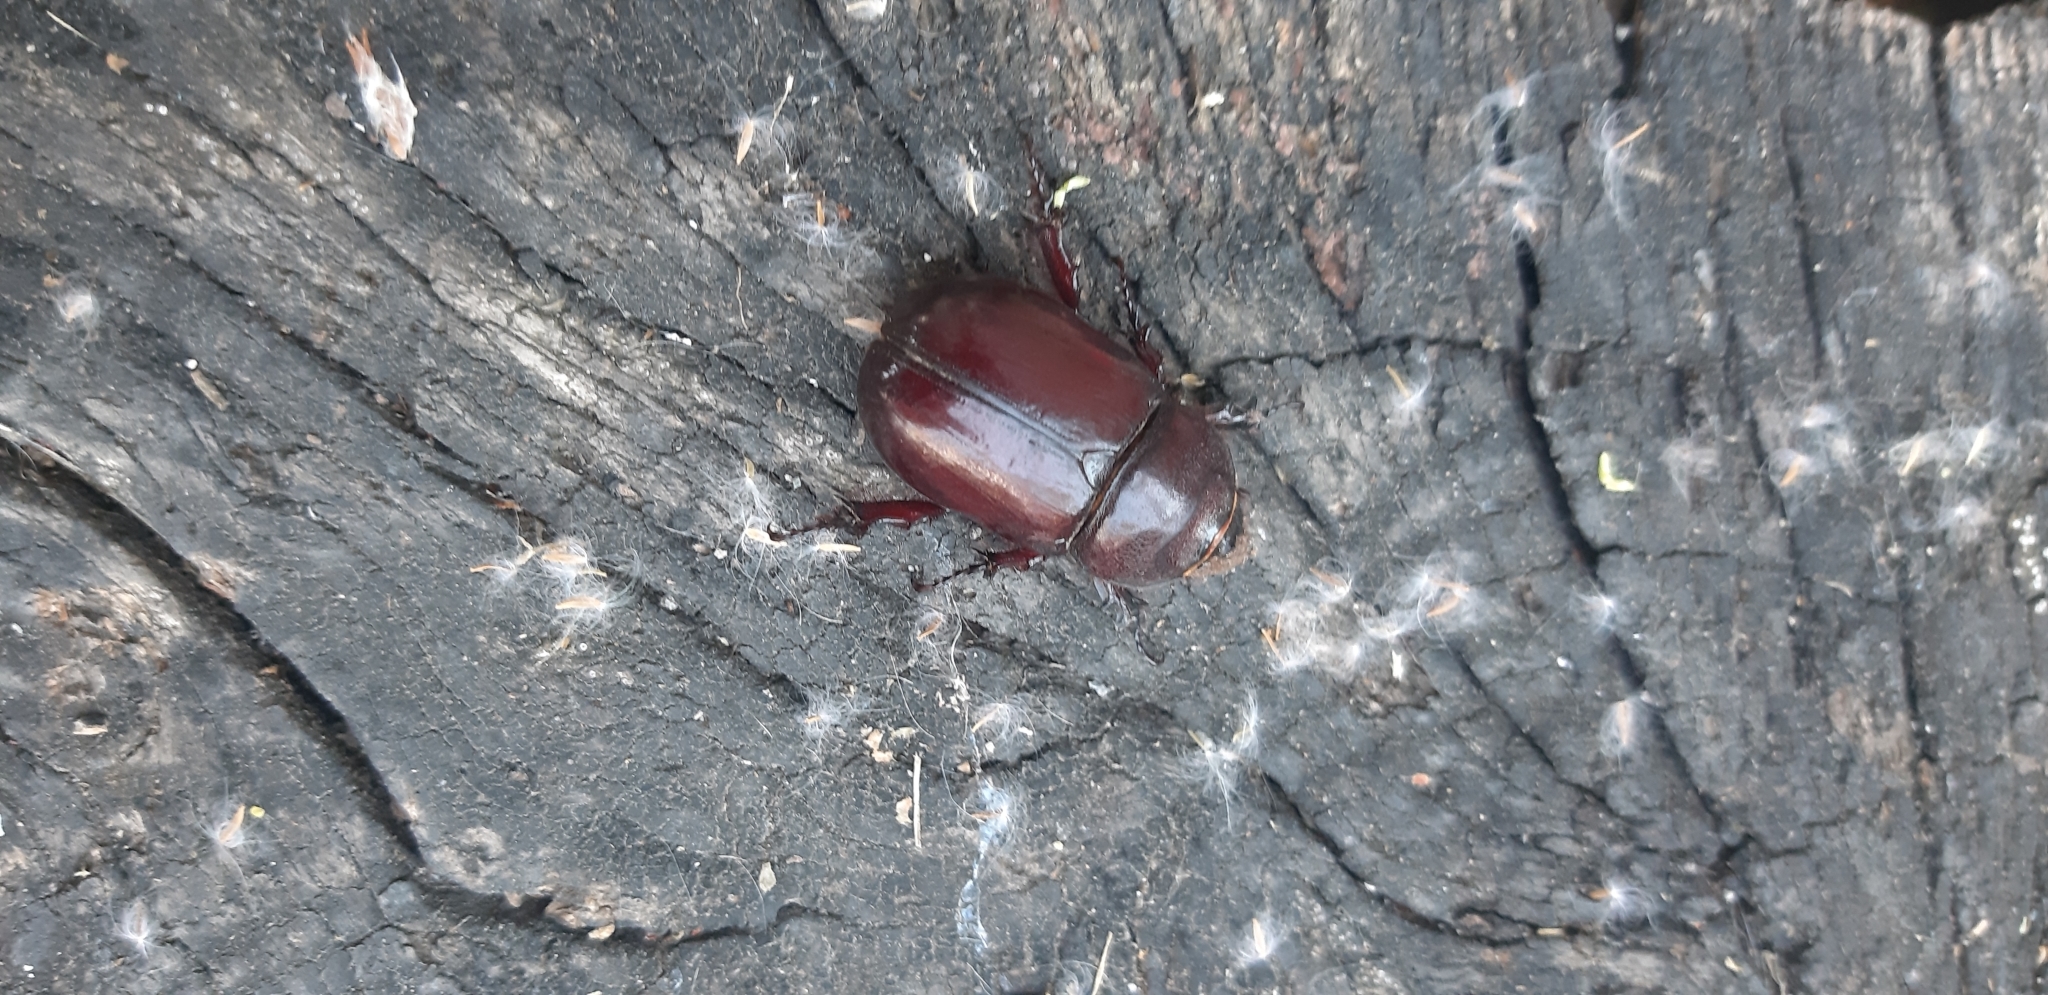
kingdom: Animalia
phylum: Arthropoda
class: Insecta
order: Coleoptera
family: Scarabaeidae
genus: Oryctes
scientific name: Oryctes nasicornis
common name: European rhinoceros beetle
